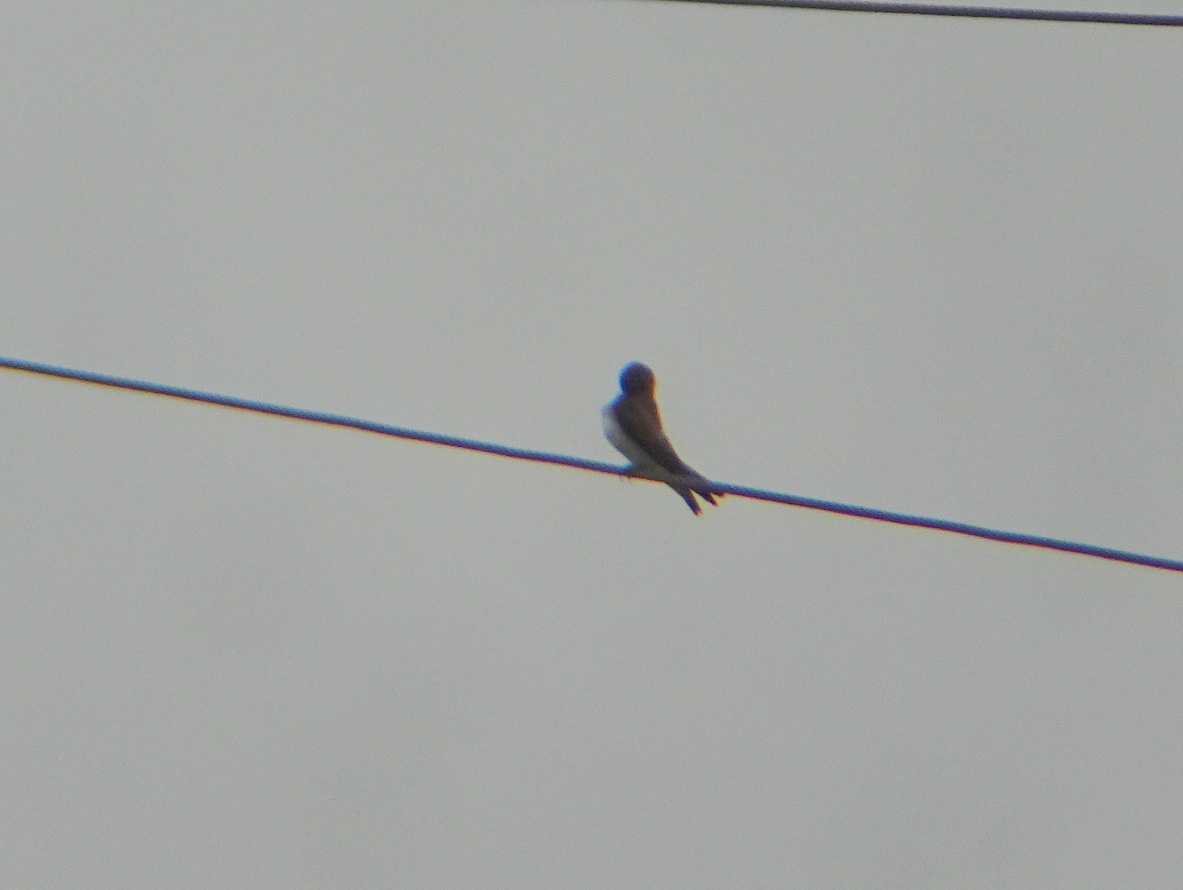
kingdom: Animalia
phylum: Chordata
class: Aves
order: Passeriformes
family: Hirundinidae
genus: Stelgidopteryx
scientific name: Stelgidopteryx serripennis
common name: Northern rough-winged swallow
